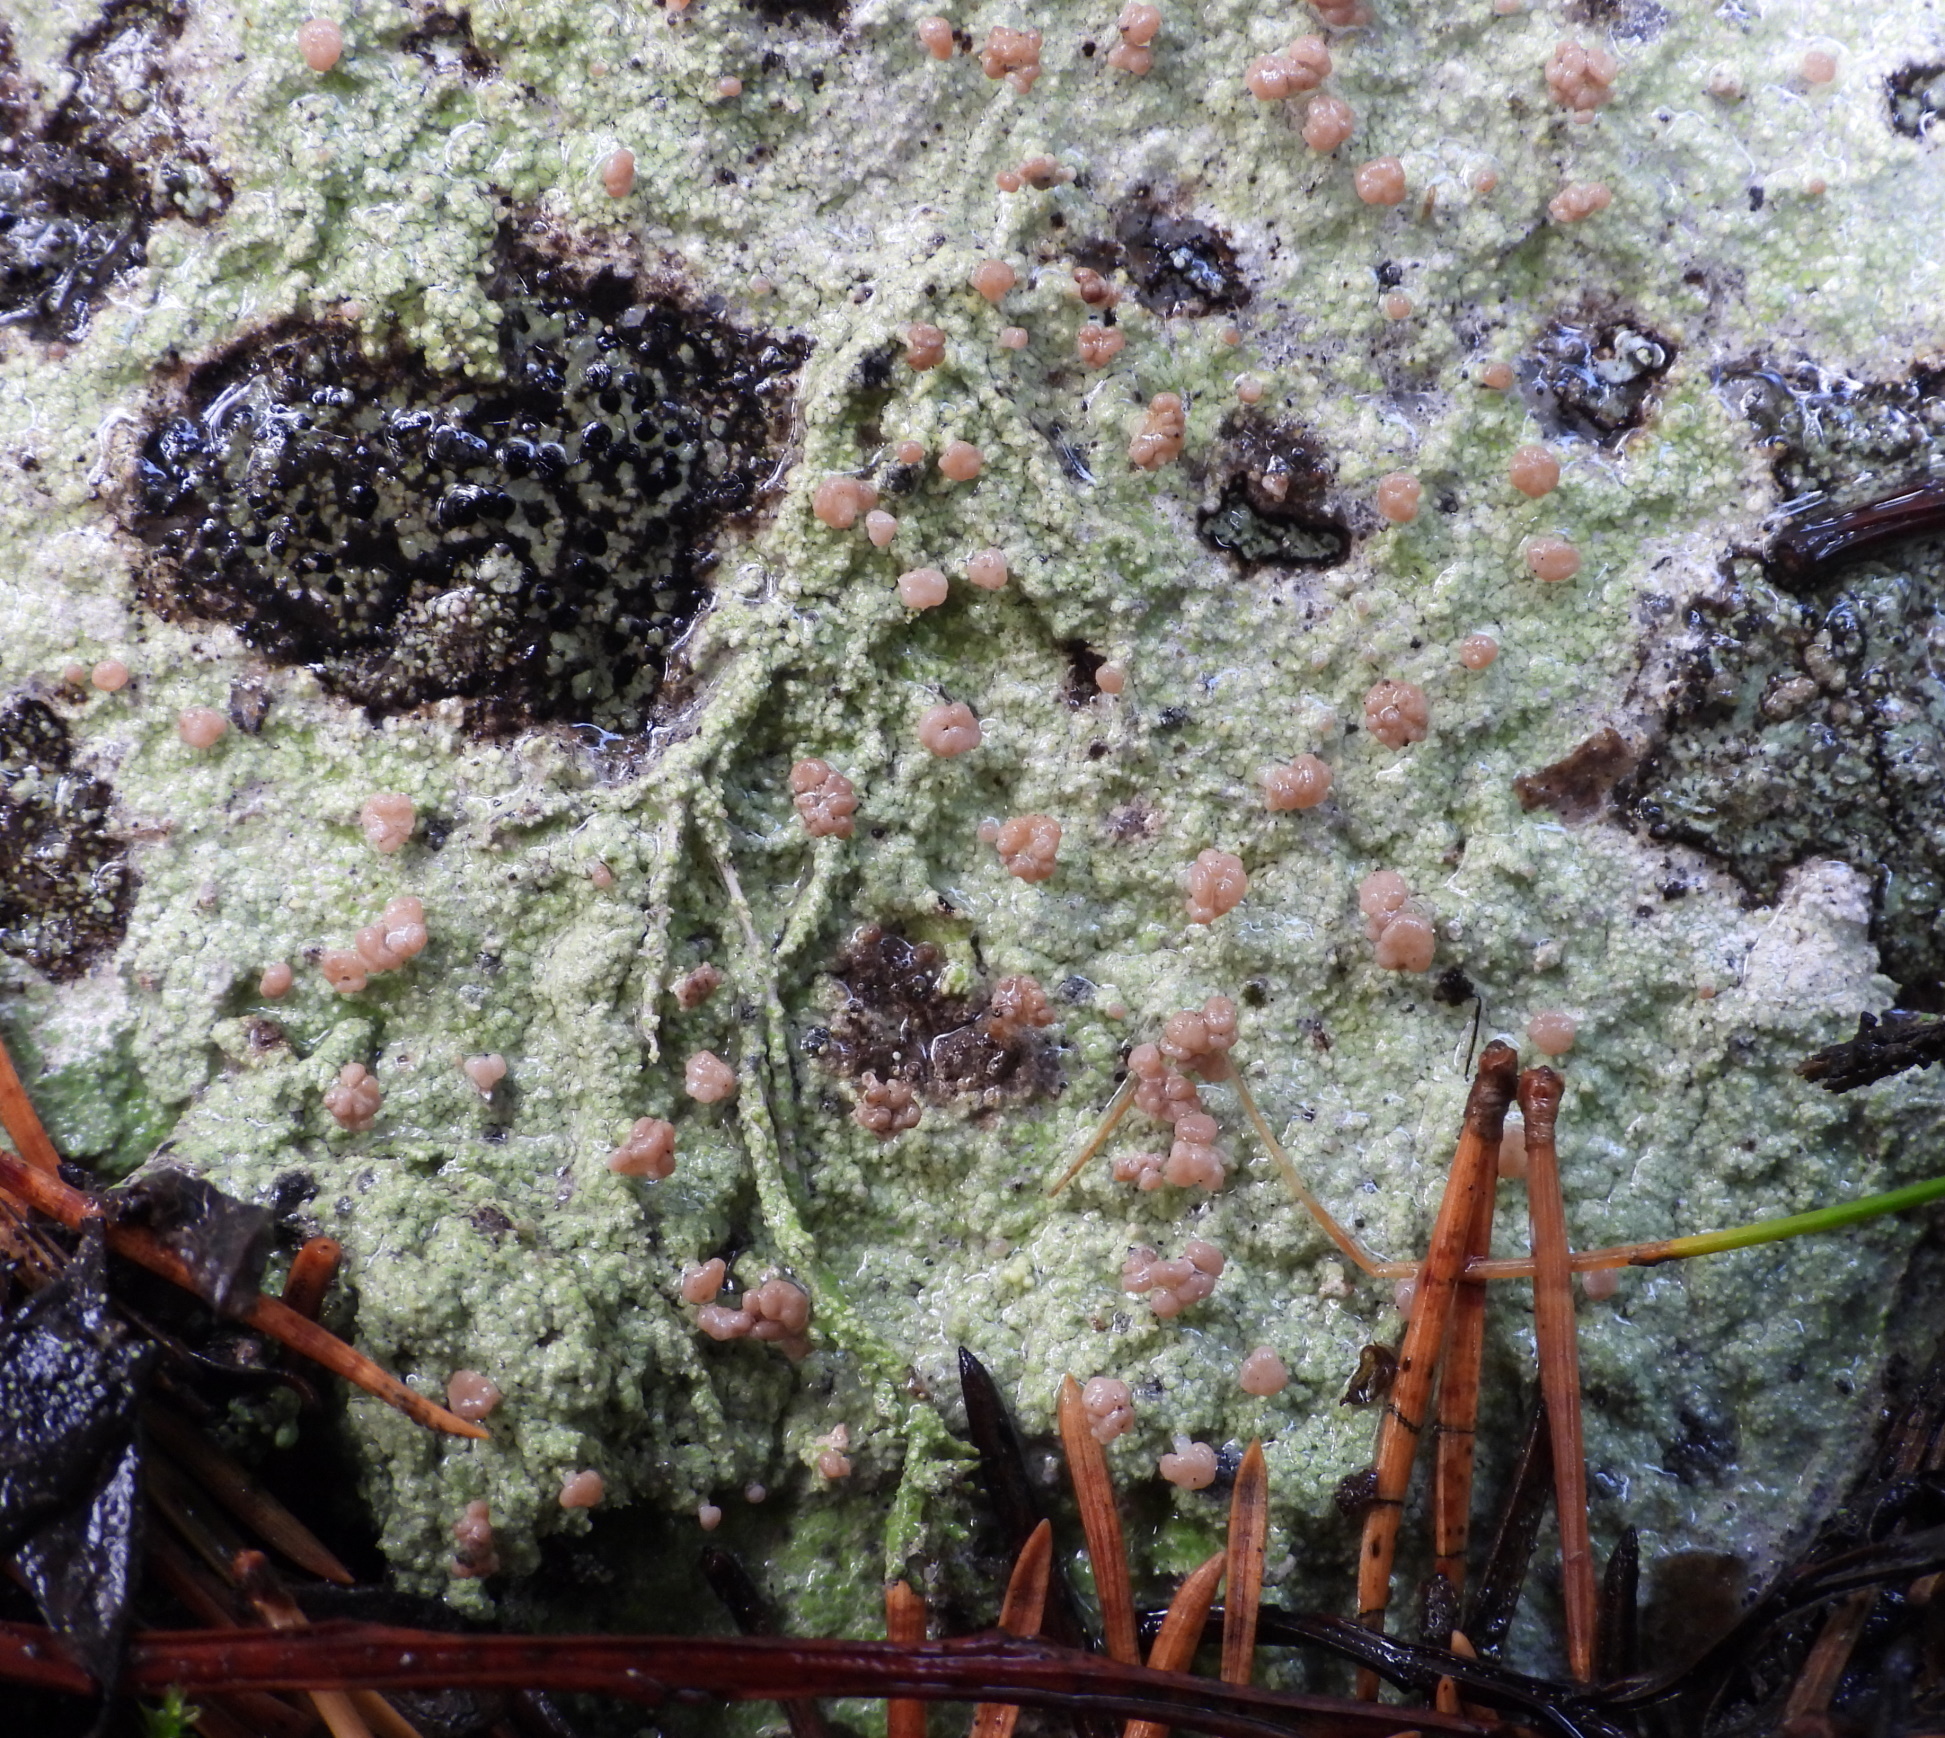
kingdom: Fungi
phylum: Ascomycota
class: Lecanoromycetes
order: Baeomycetales
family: Baeomycetaceae
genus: Baeomyces
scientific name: Baeomyces rufus
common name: Brown beret lichen
